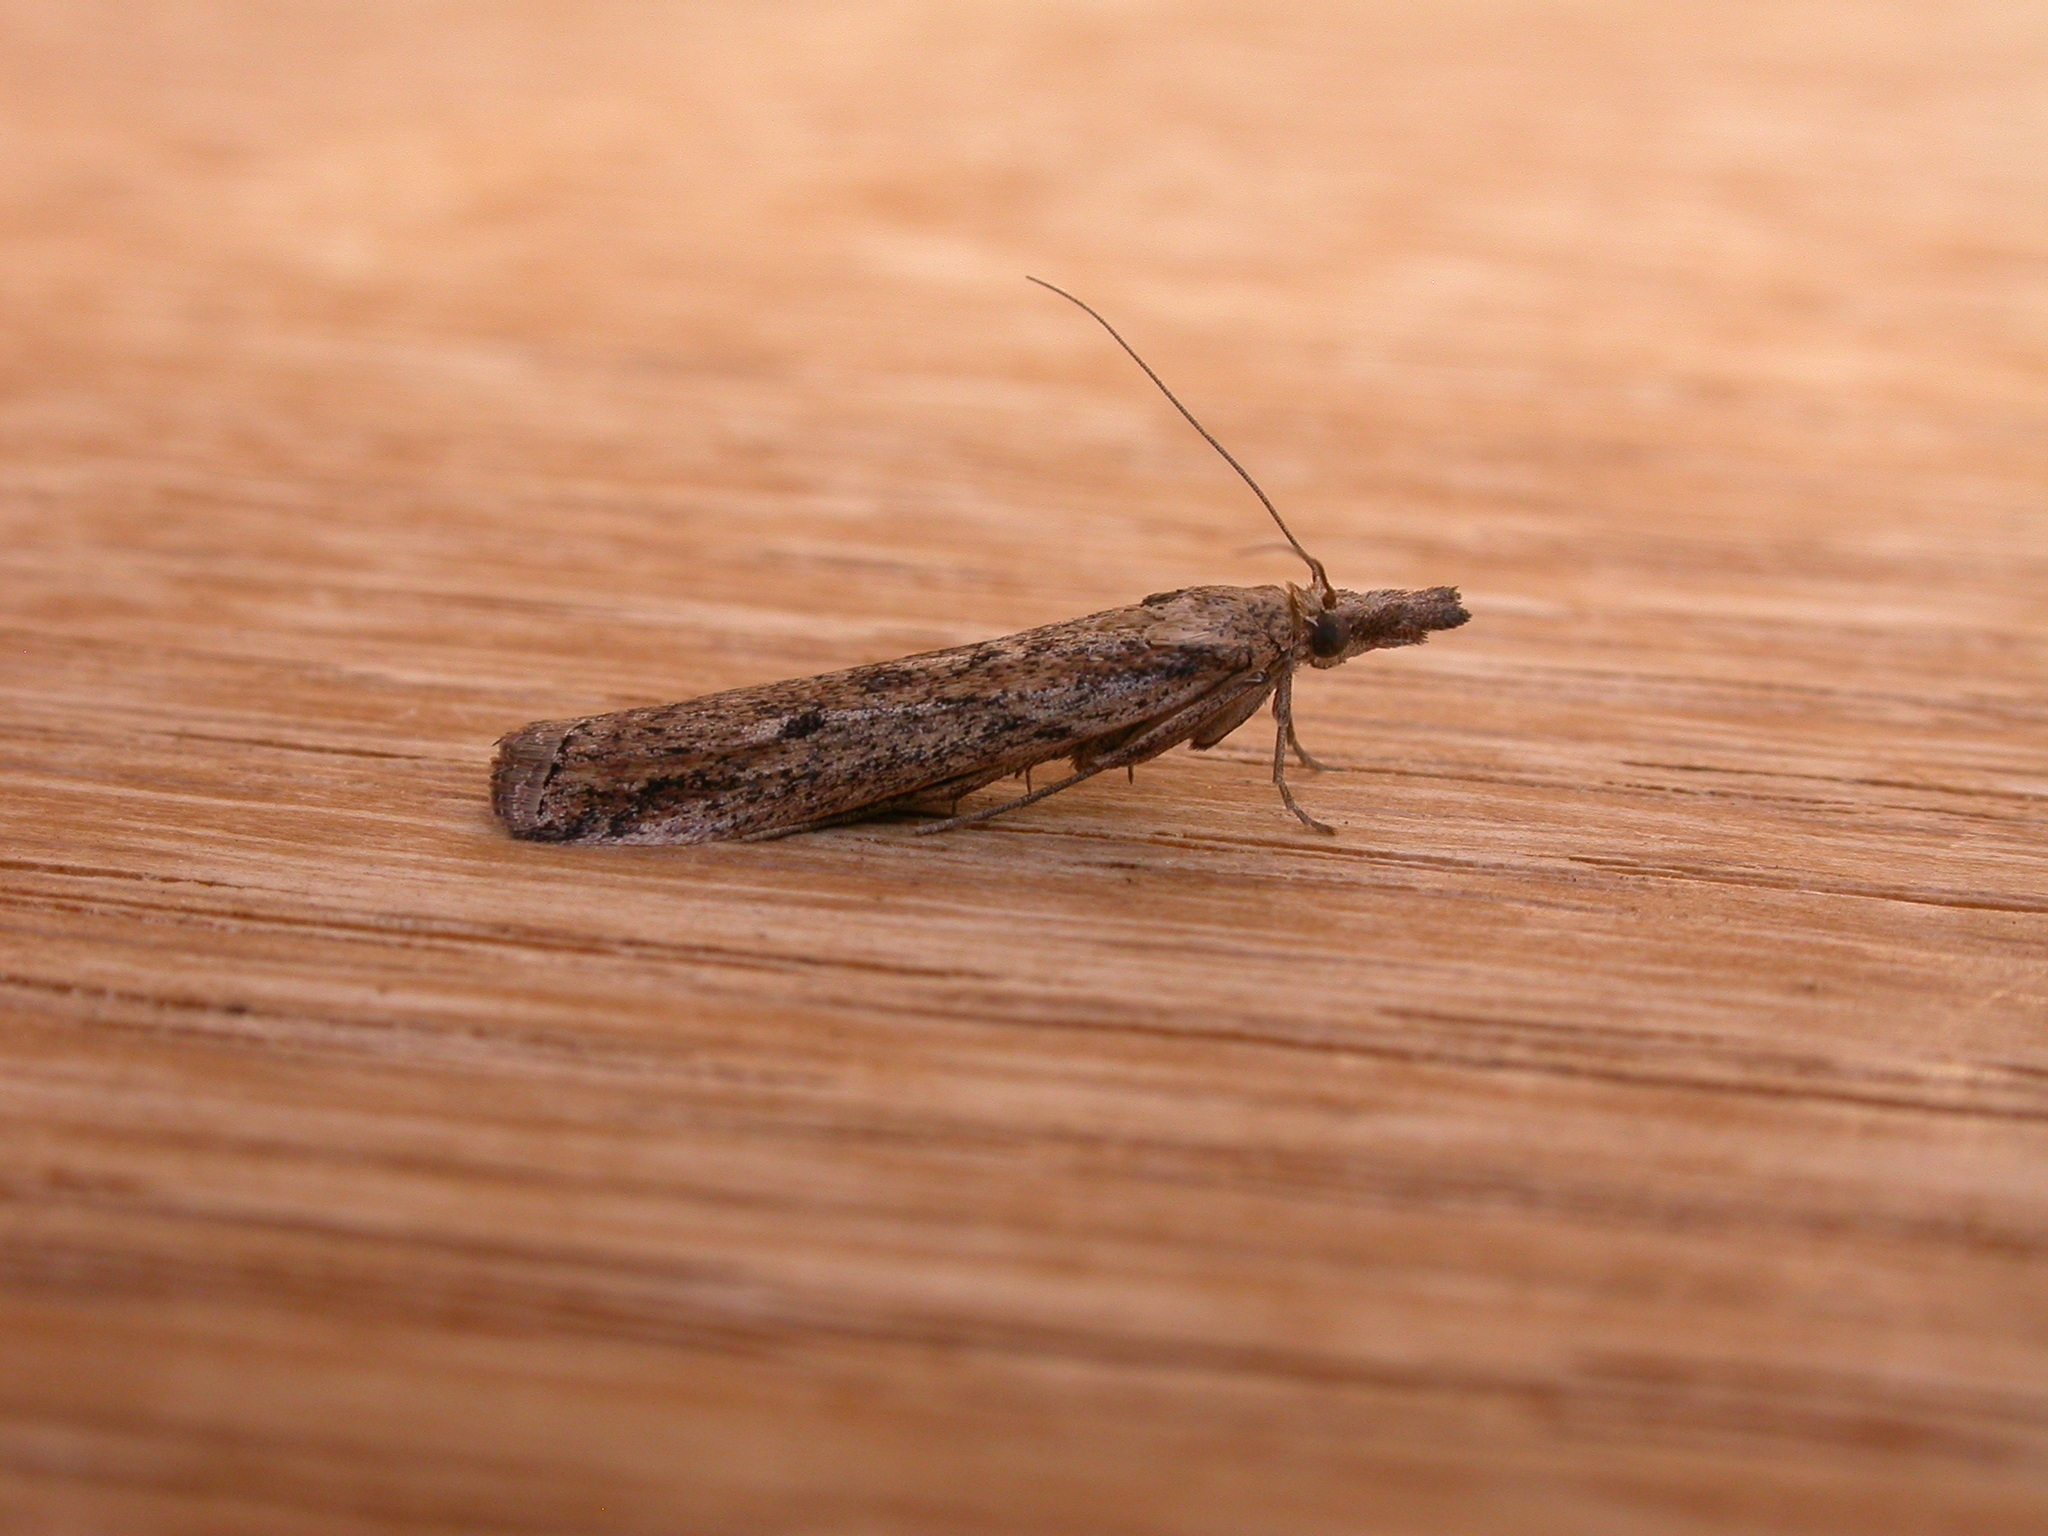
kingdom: Animalia
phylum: Arthropoda
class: Insecta
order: Lepidoptera
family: Pyralidae
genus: Faveria
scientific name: Faveria tritalis
